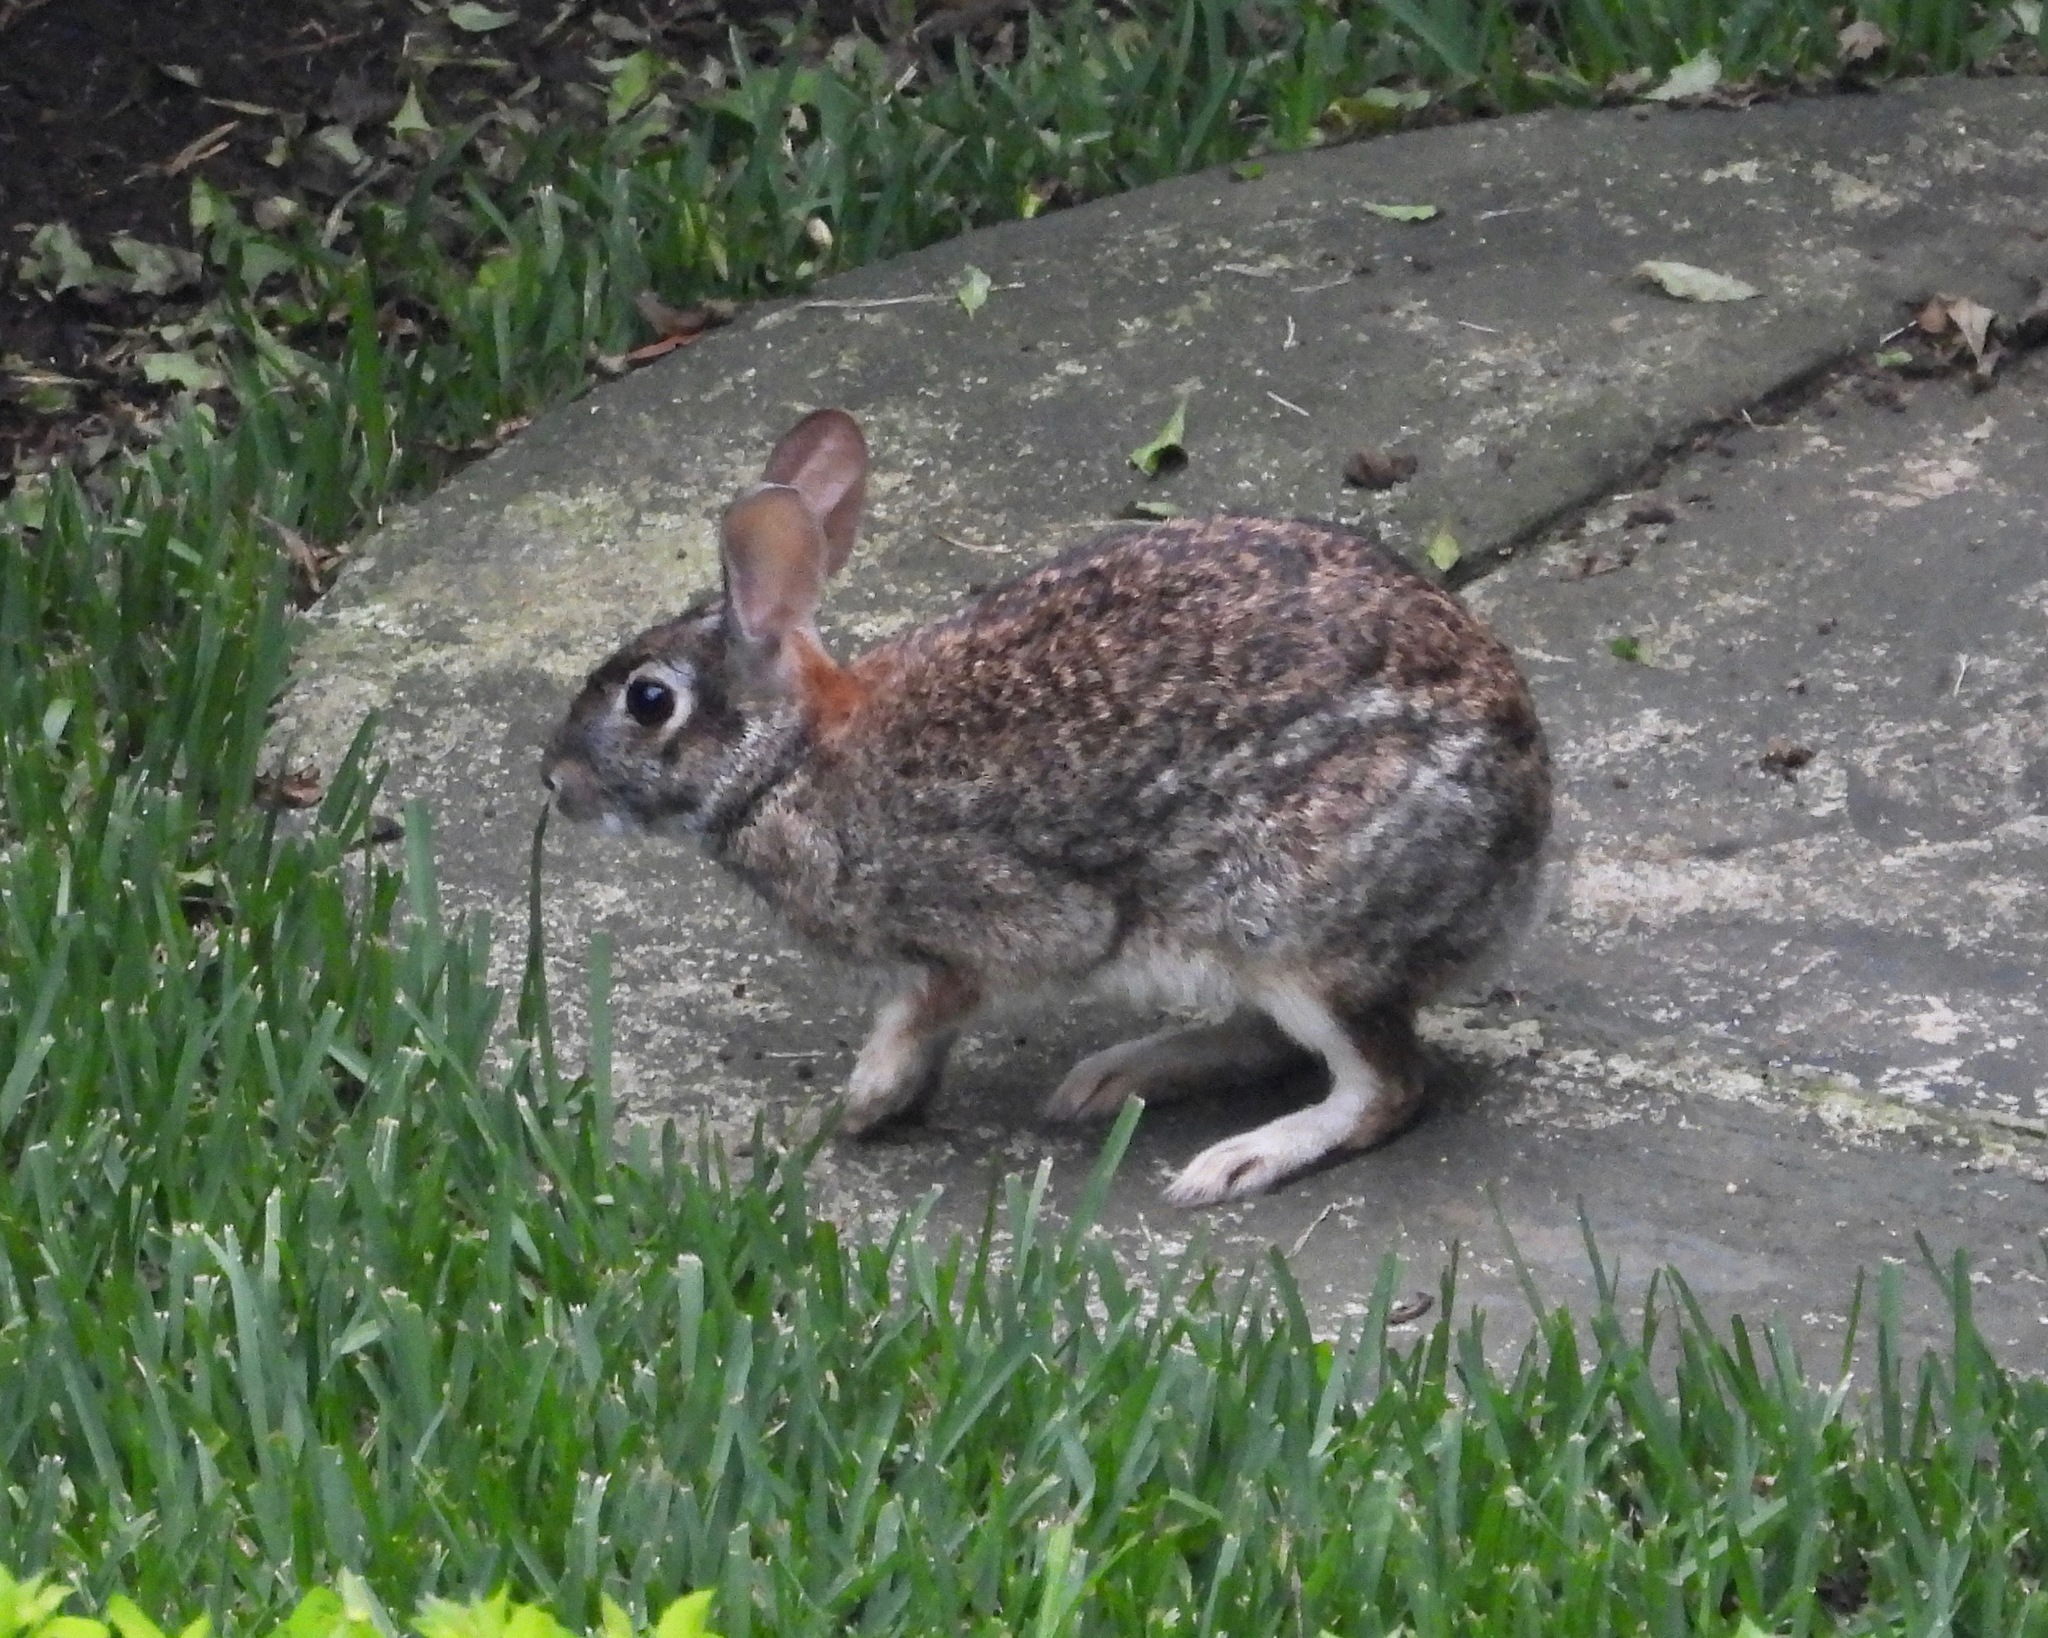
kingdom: Animalia
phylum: Chordata
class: Mammalia
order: Lagomorpha
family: Leporidae
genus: Sylvilagus
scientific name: Sylvilagus floridanus
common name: Eastern cottontail
